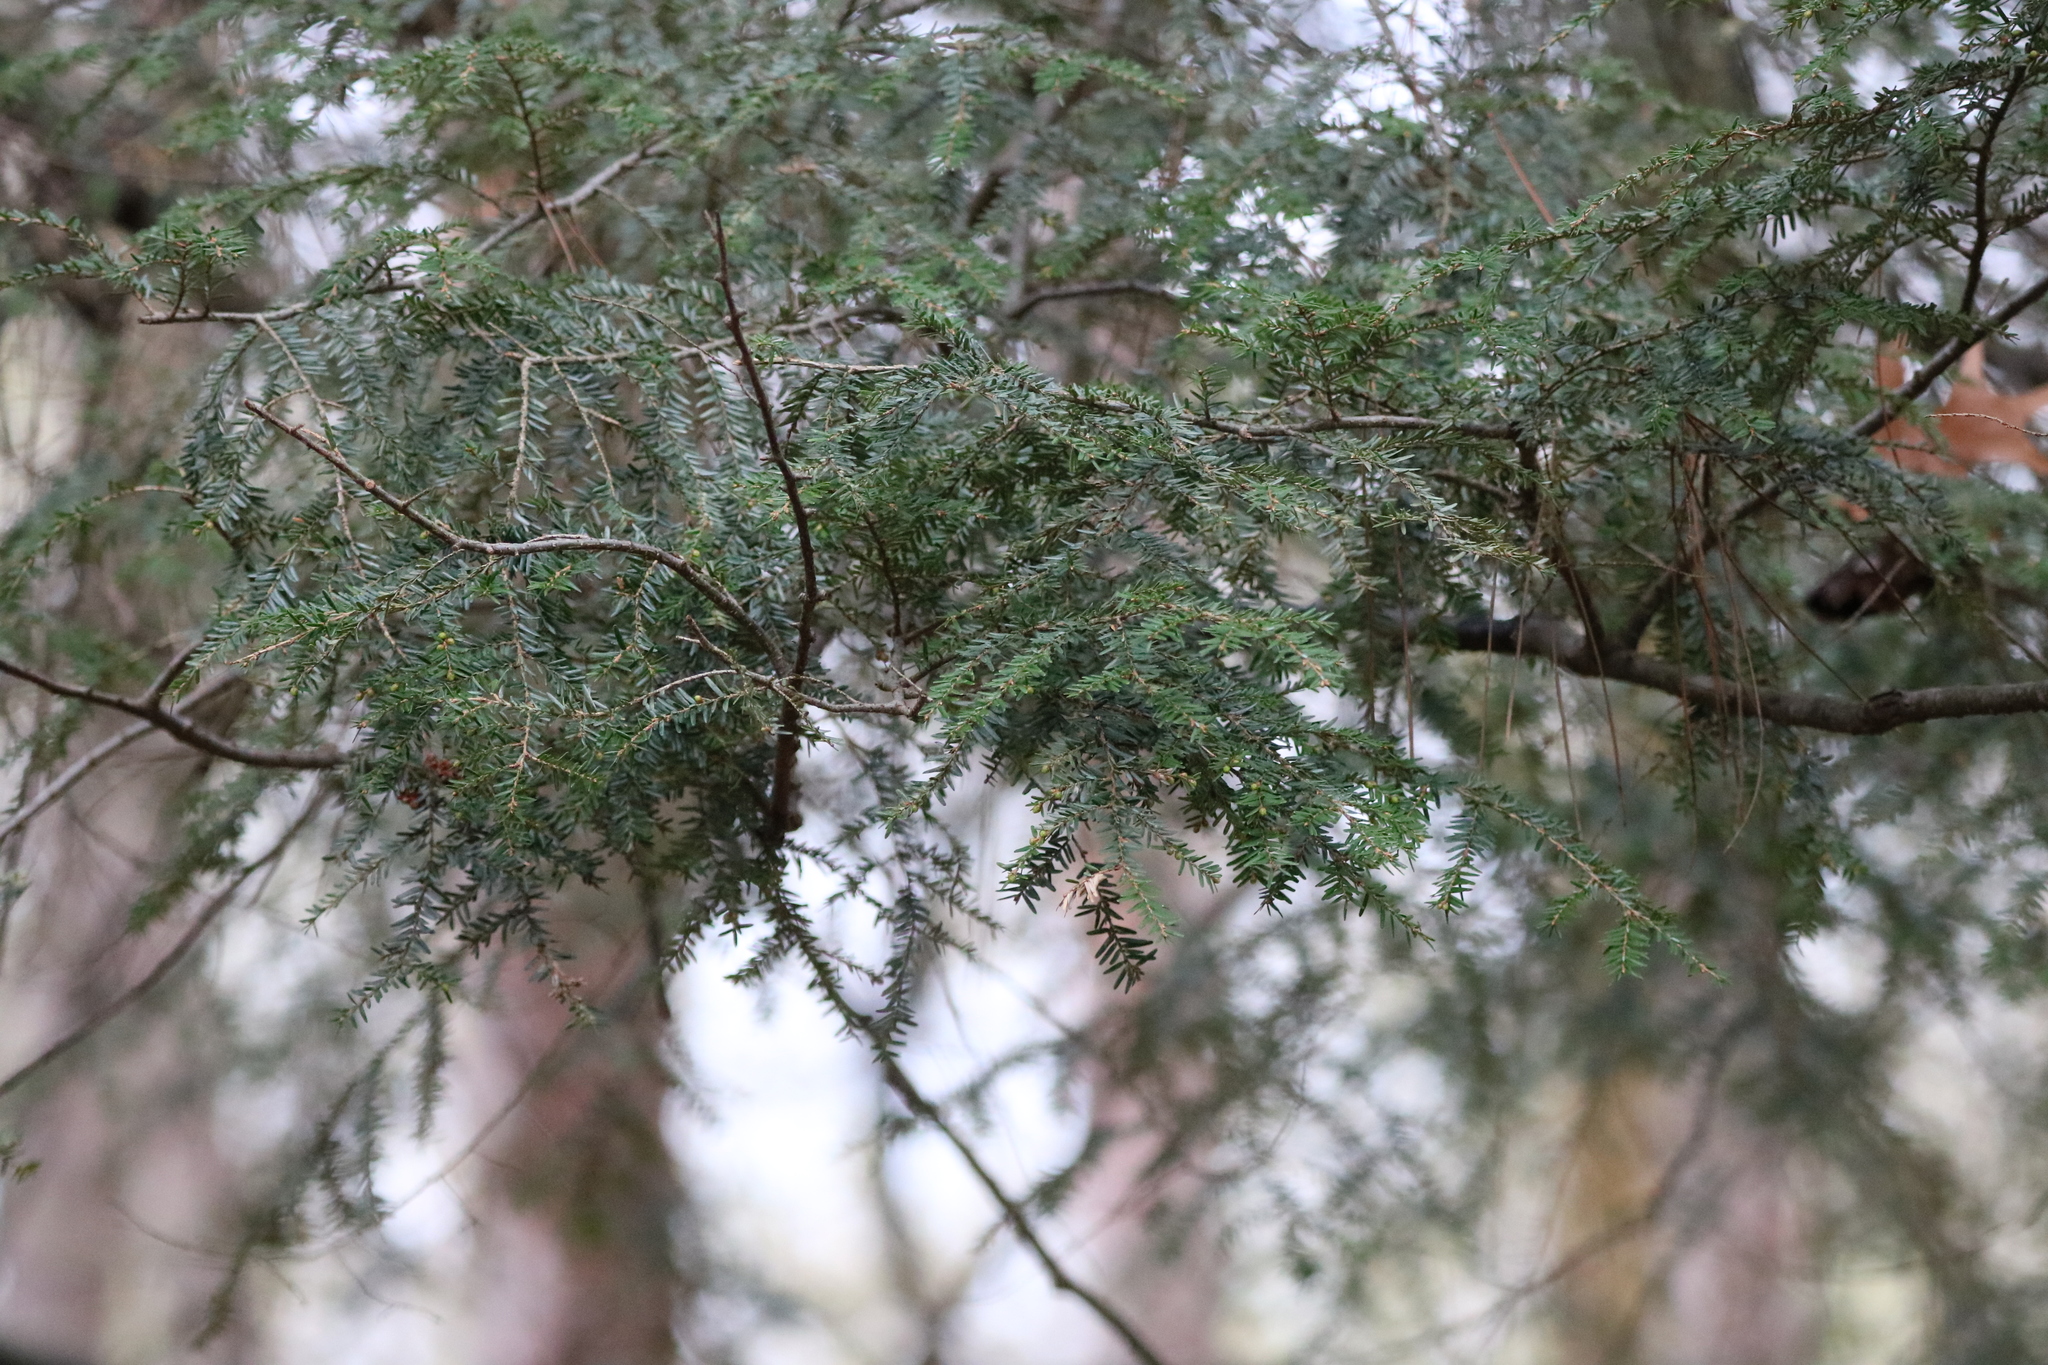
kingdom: Plantae
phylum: Tracheophyta
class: Pinopsida
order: Pinales
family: Pinaceae
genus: Tsuga
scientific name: Tsuga canadensis
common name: Eastern hemlock
